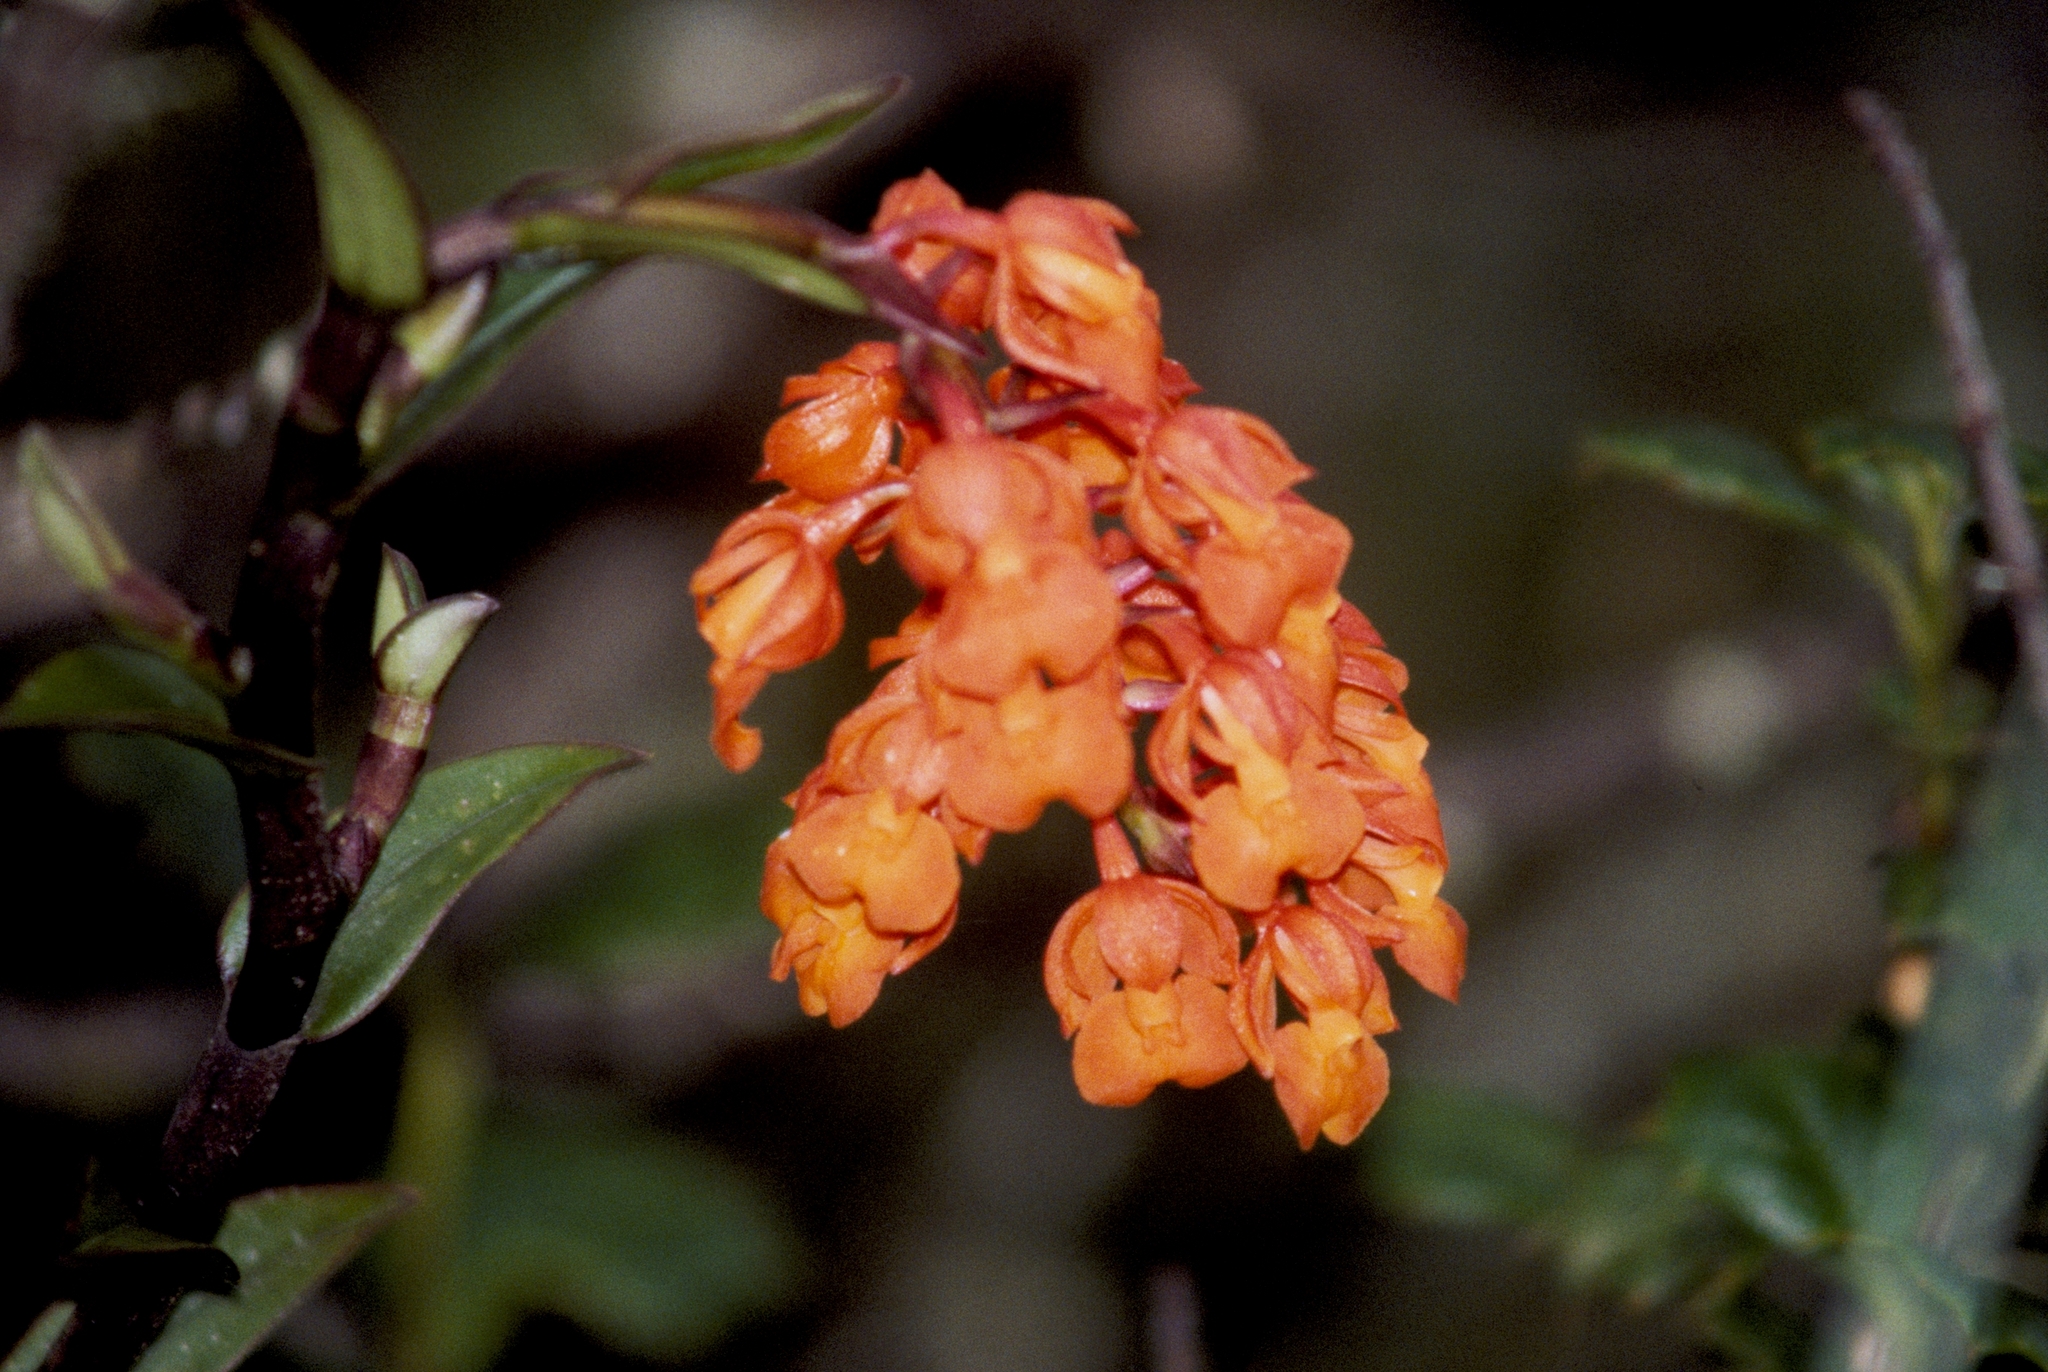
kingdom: Plantae
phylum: Tracheophyta
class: Liliopsida
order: Asparagales
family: Orchidaceae
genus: Epidendrum
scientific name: Epidendrum ardens
